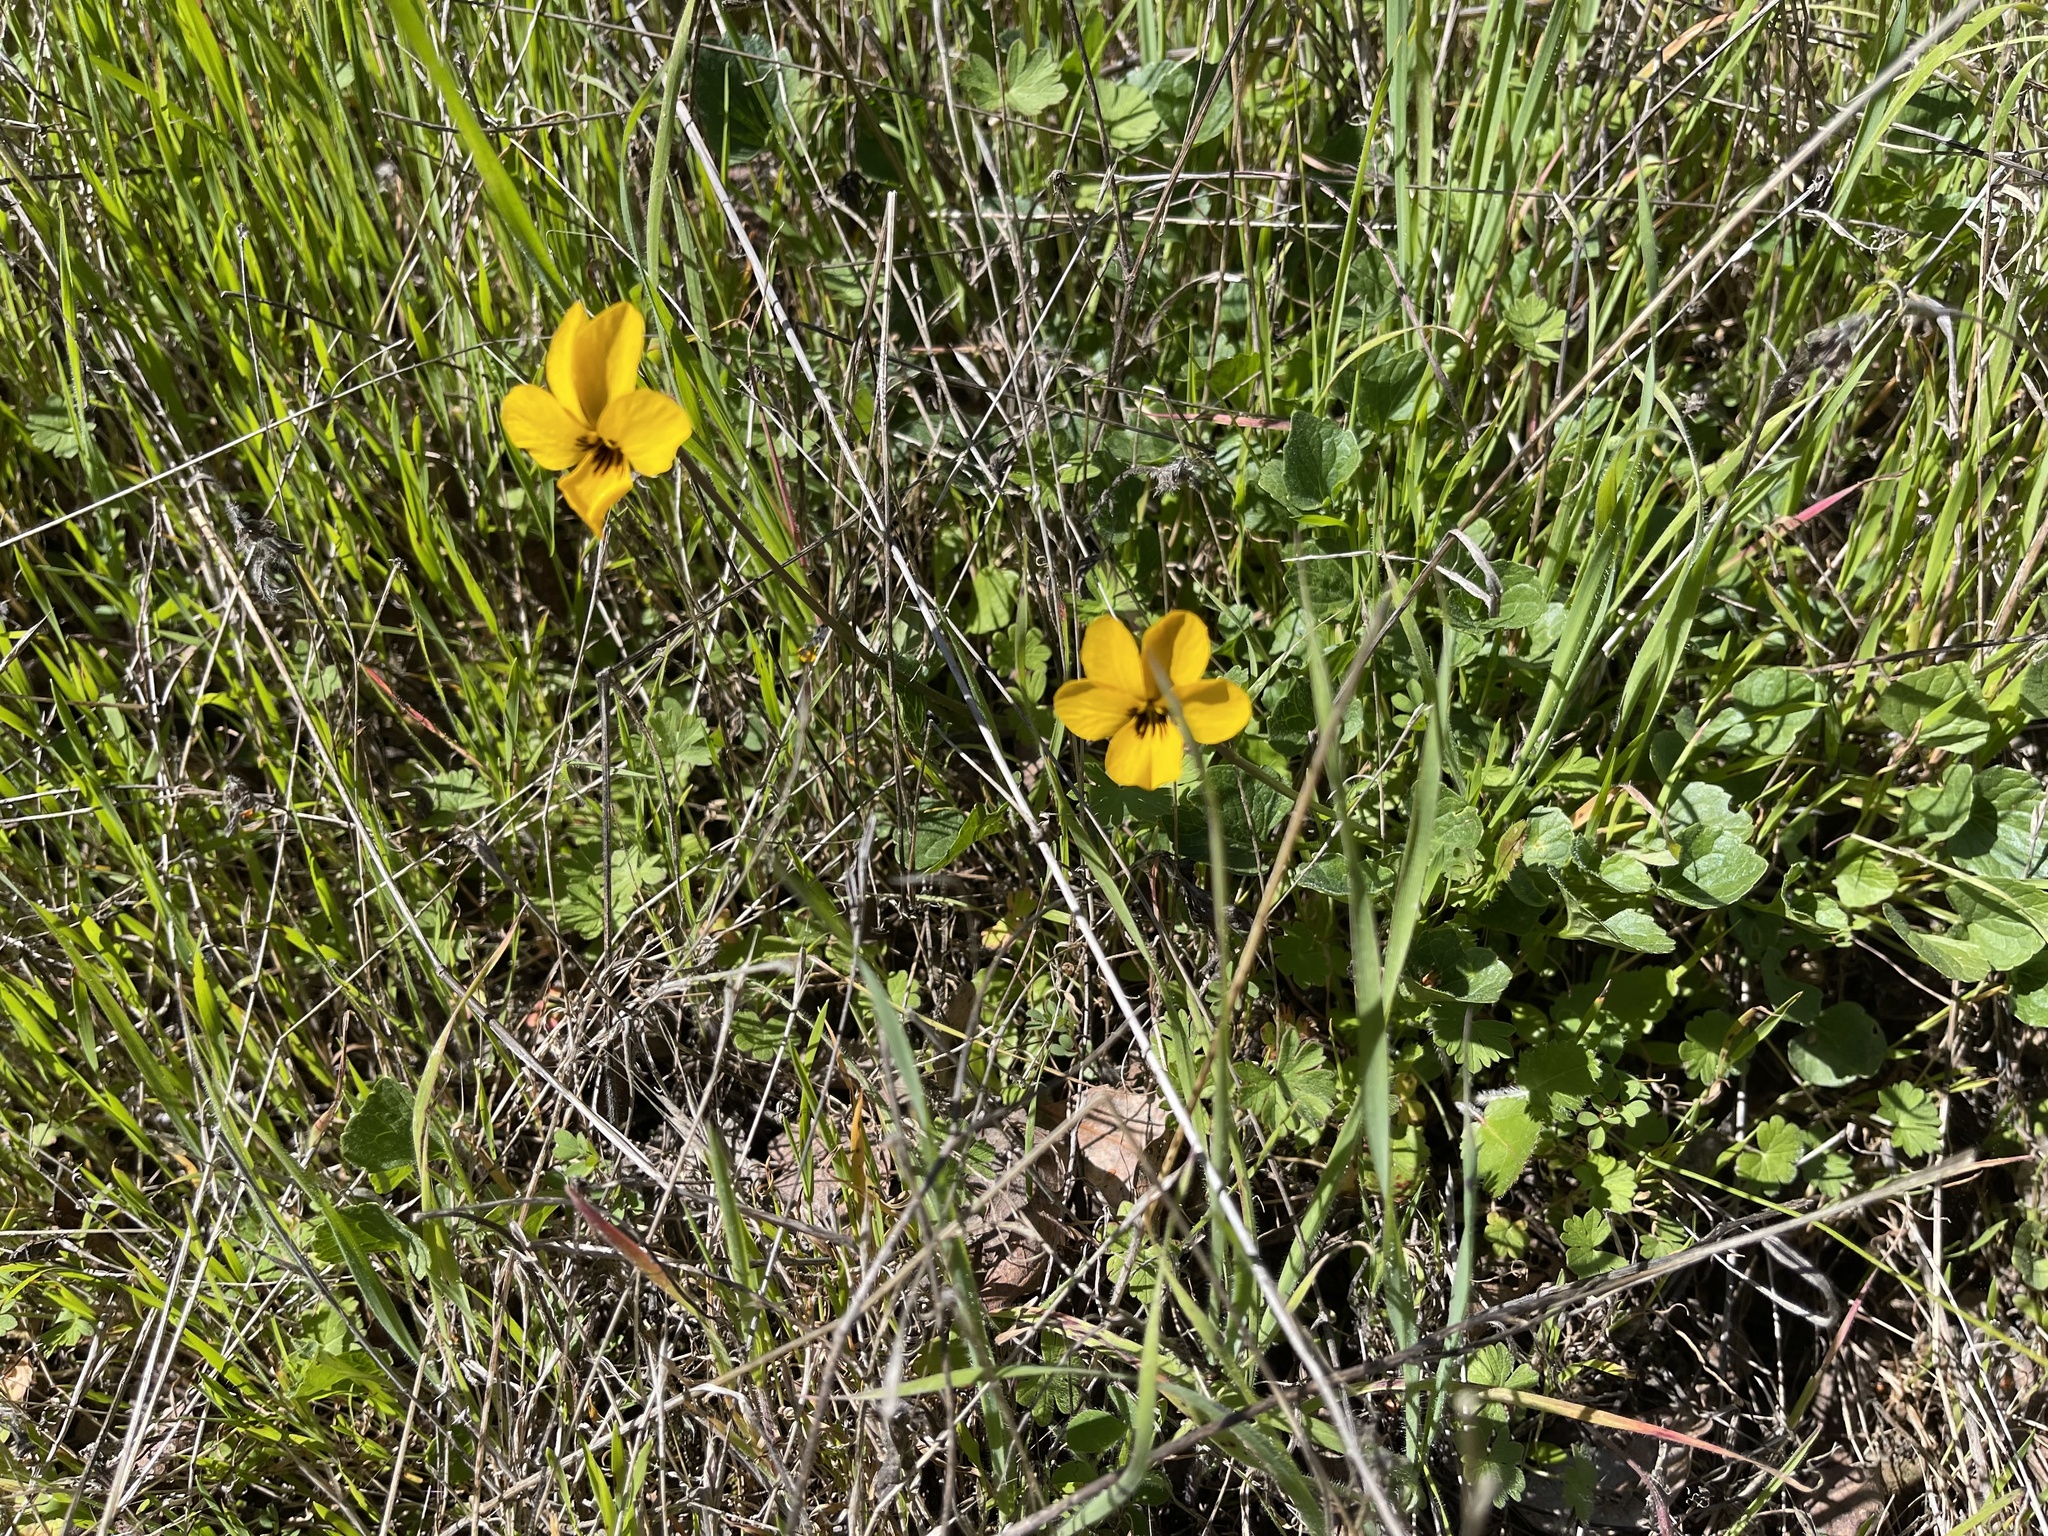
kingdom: Plantae
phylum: Tracheophyta
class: Magnoliopsida
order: Malpighiales
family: Violaceae
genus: Viola
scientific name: Viola pedunculata
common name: California golden violet
